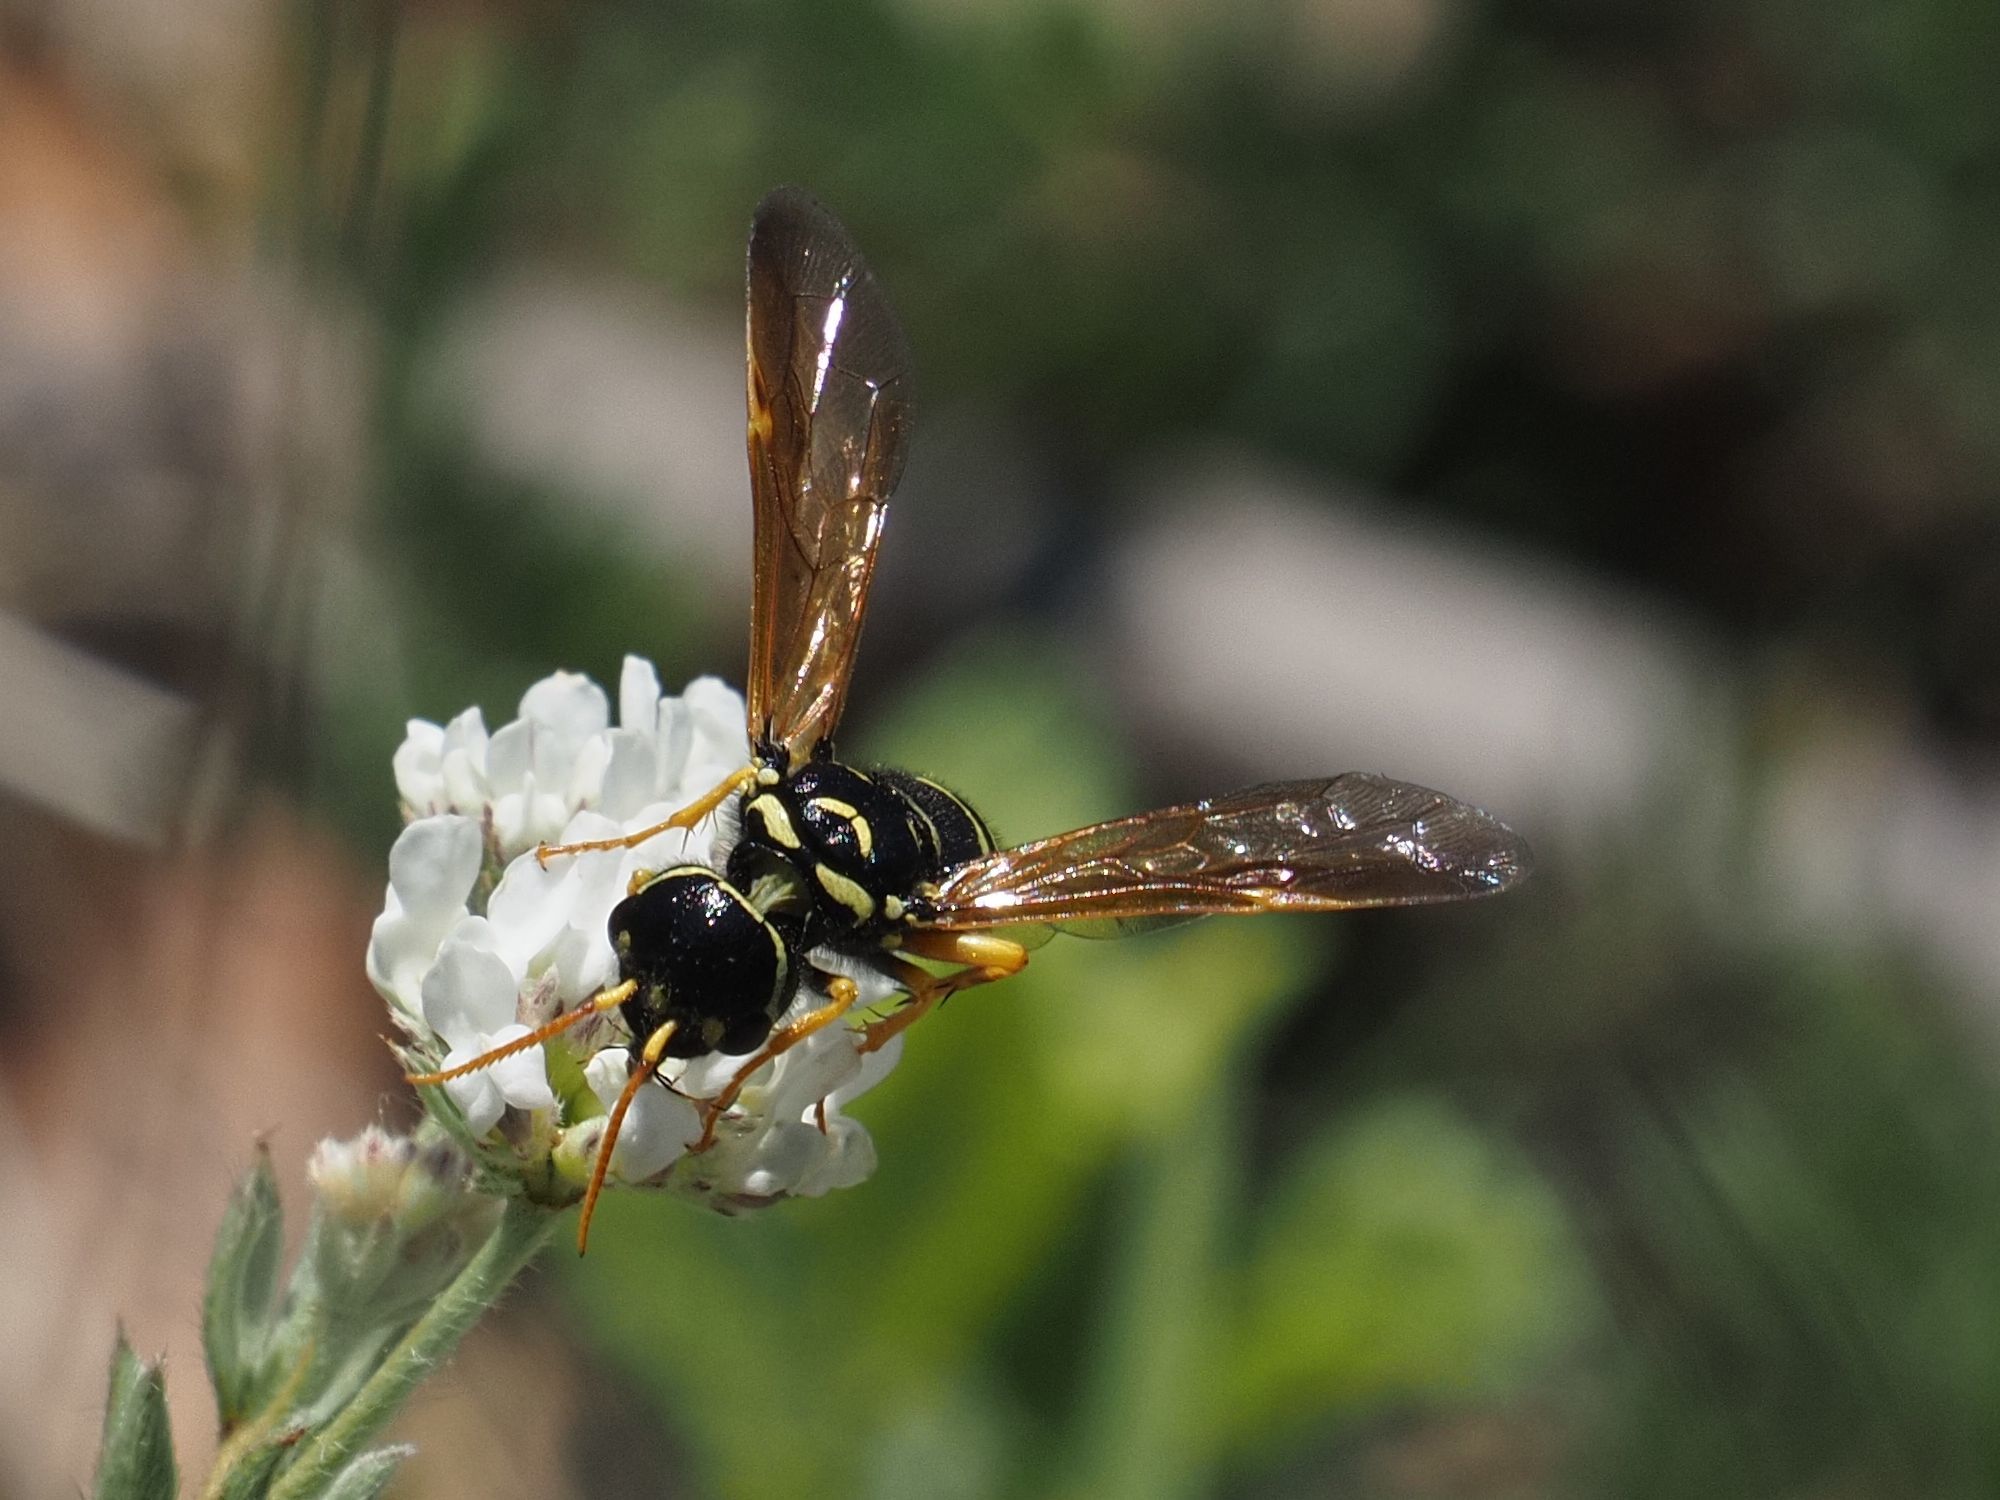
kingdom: Animalia
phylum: Arthropoda
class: Insecta
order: Hymenoptera
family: Megalodontesidae
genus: Megalodontes
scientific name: Megalodontes panzeri
